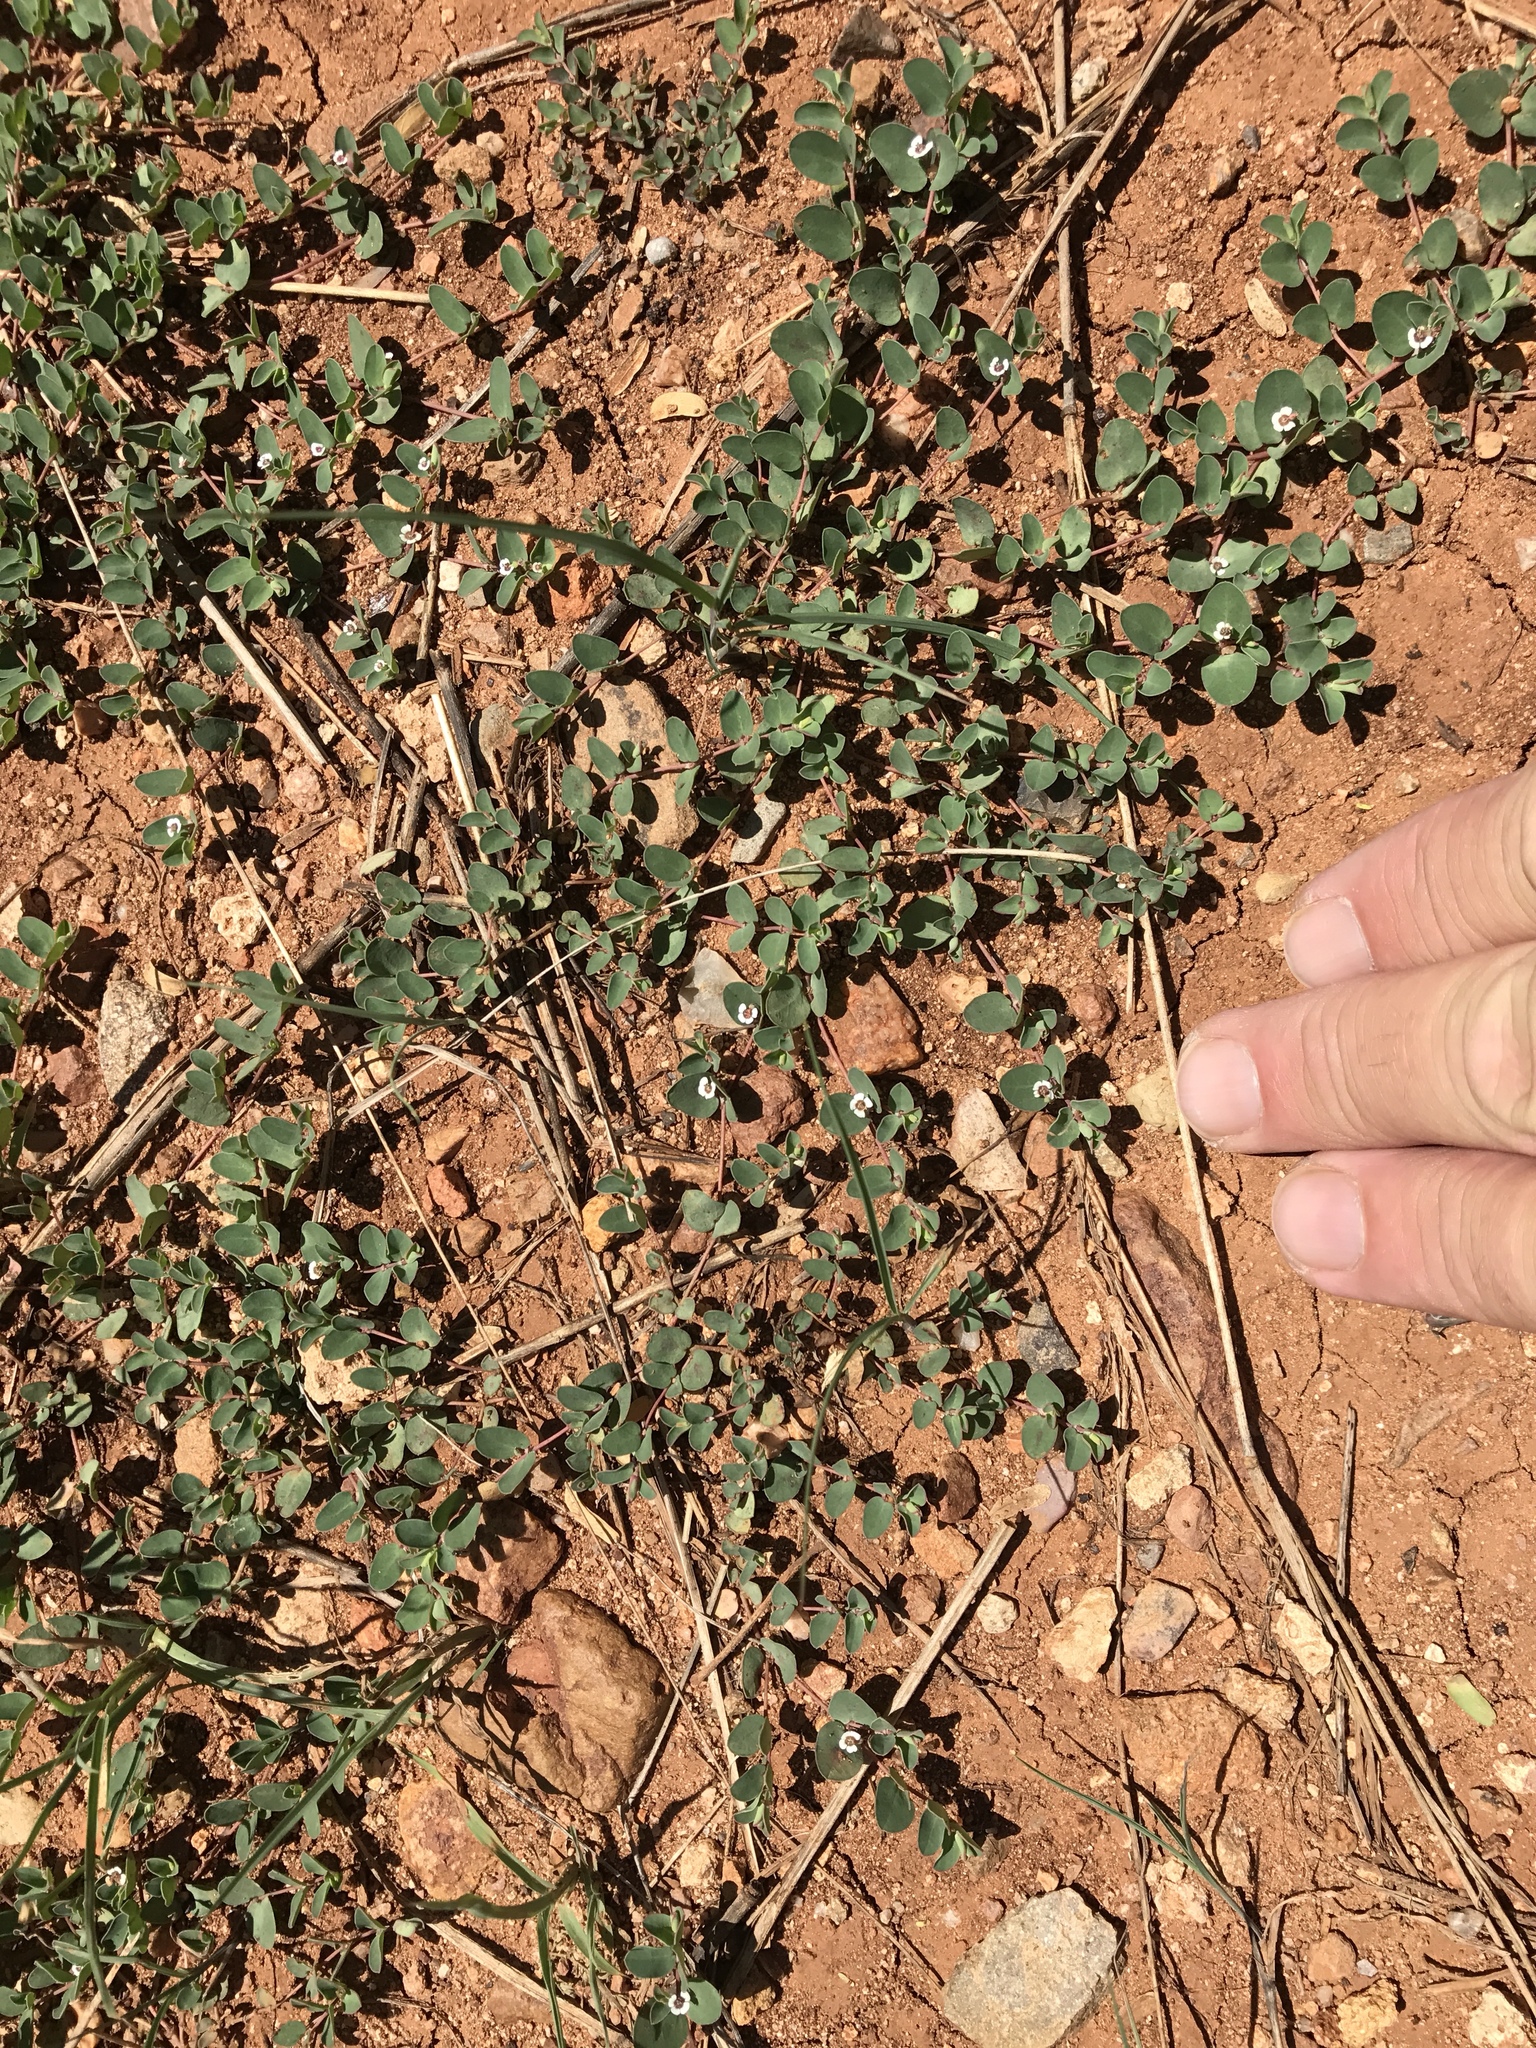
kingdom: Plantae
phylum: Tracheophyta
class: Magnoliopsida
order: Malpighiales
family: Euphorbiaceae
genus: Euphorbia
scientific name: Euphorbia albomarginata
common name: Whitemargin sandmat
